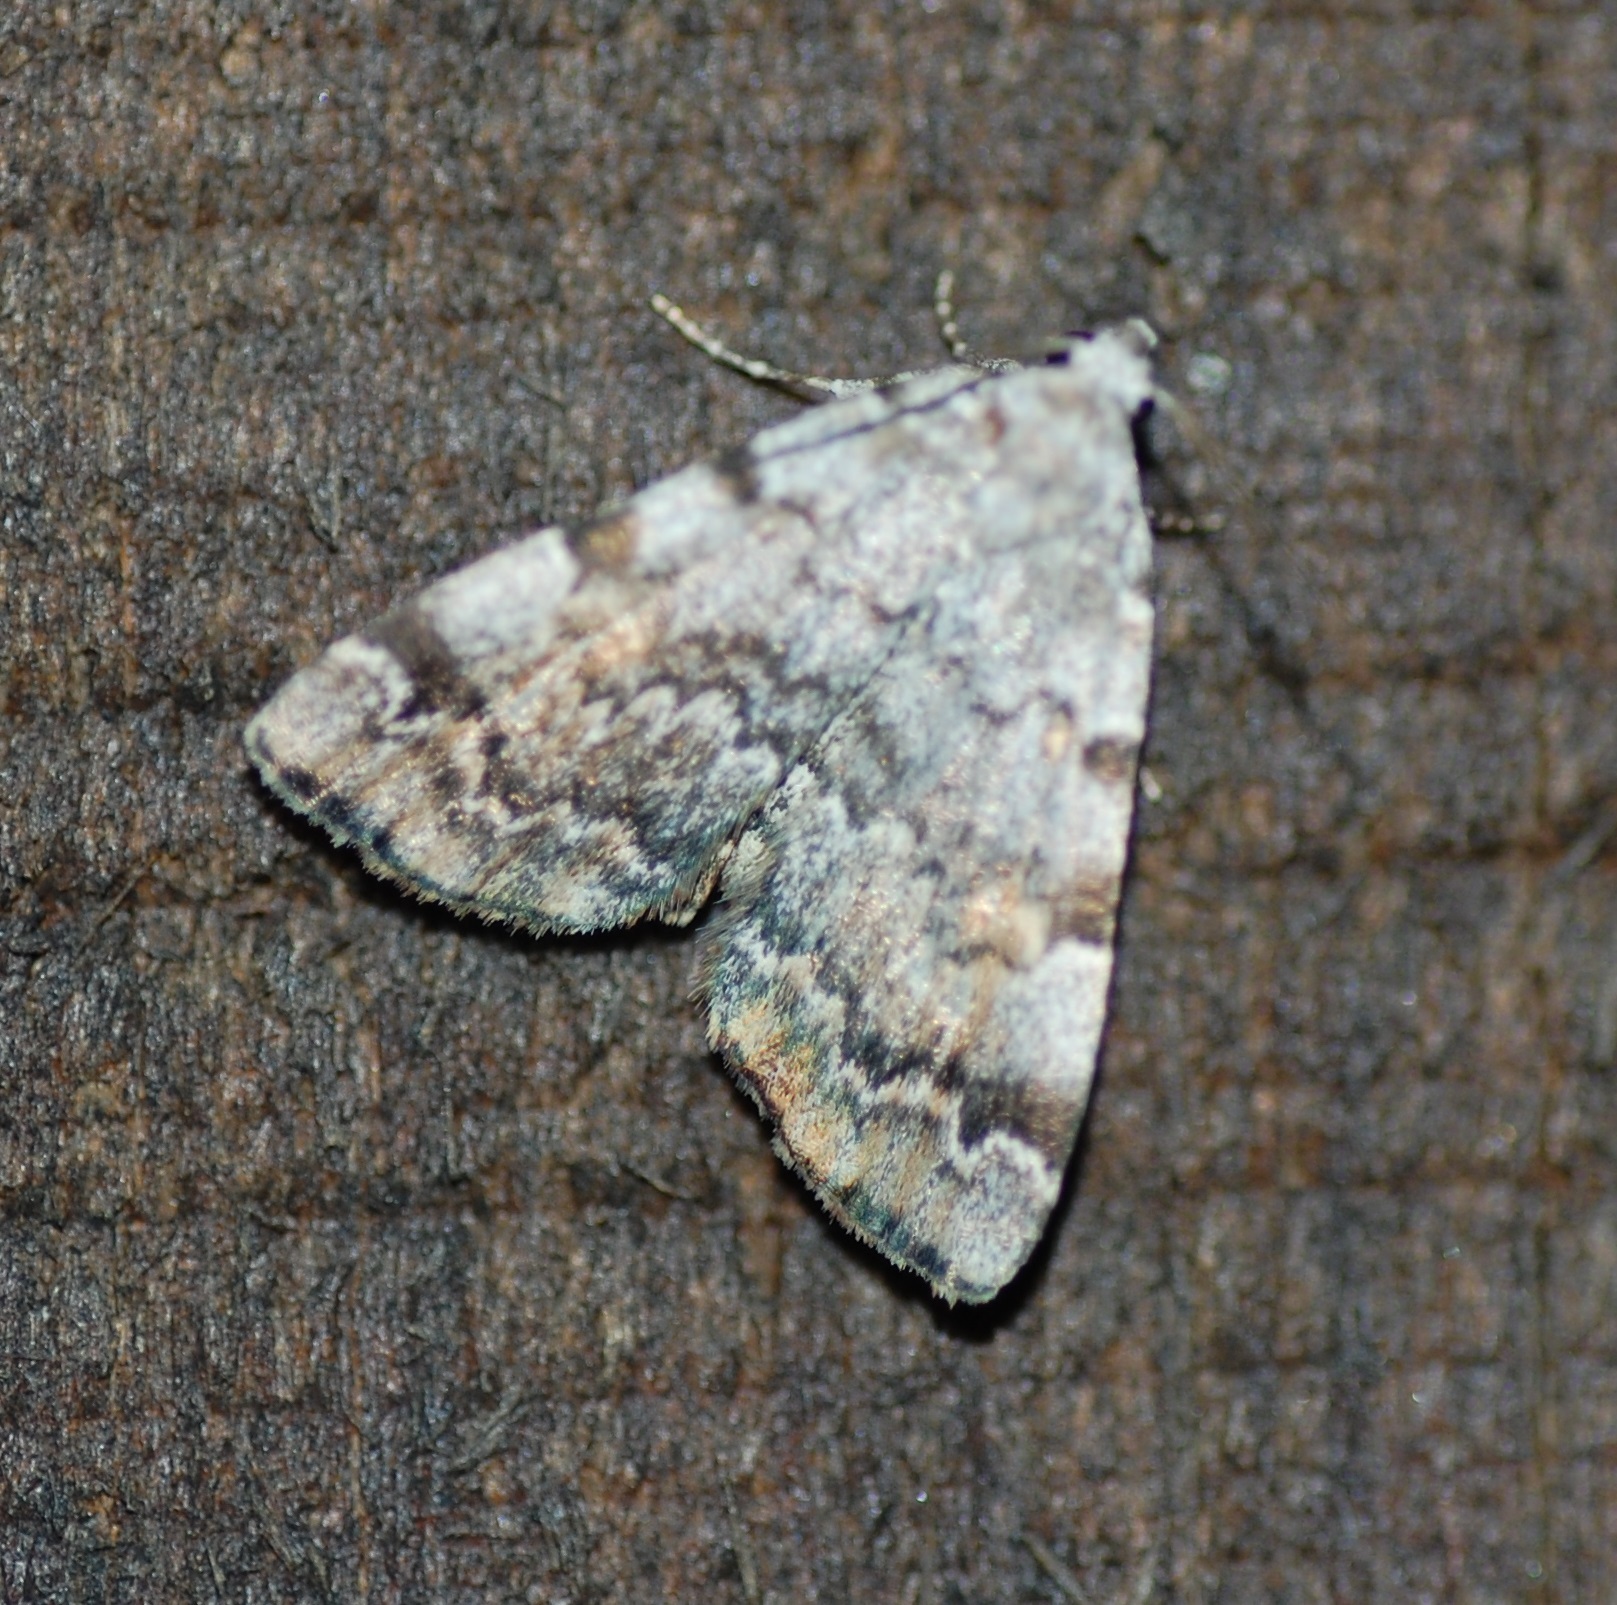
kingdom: Animalia
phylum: Arthropoda
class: Insecta
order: Lepidoptera
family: Erebidae
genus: Idia
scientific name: Idia americalis
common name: American idia moth
